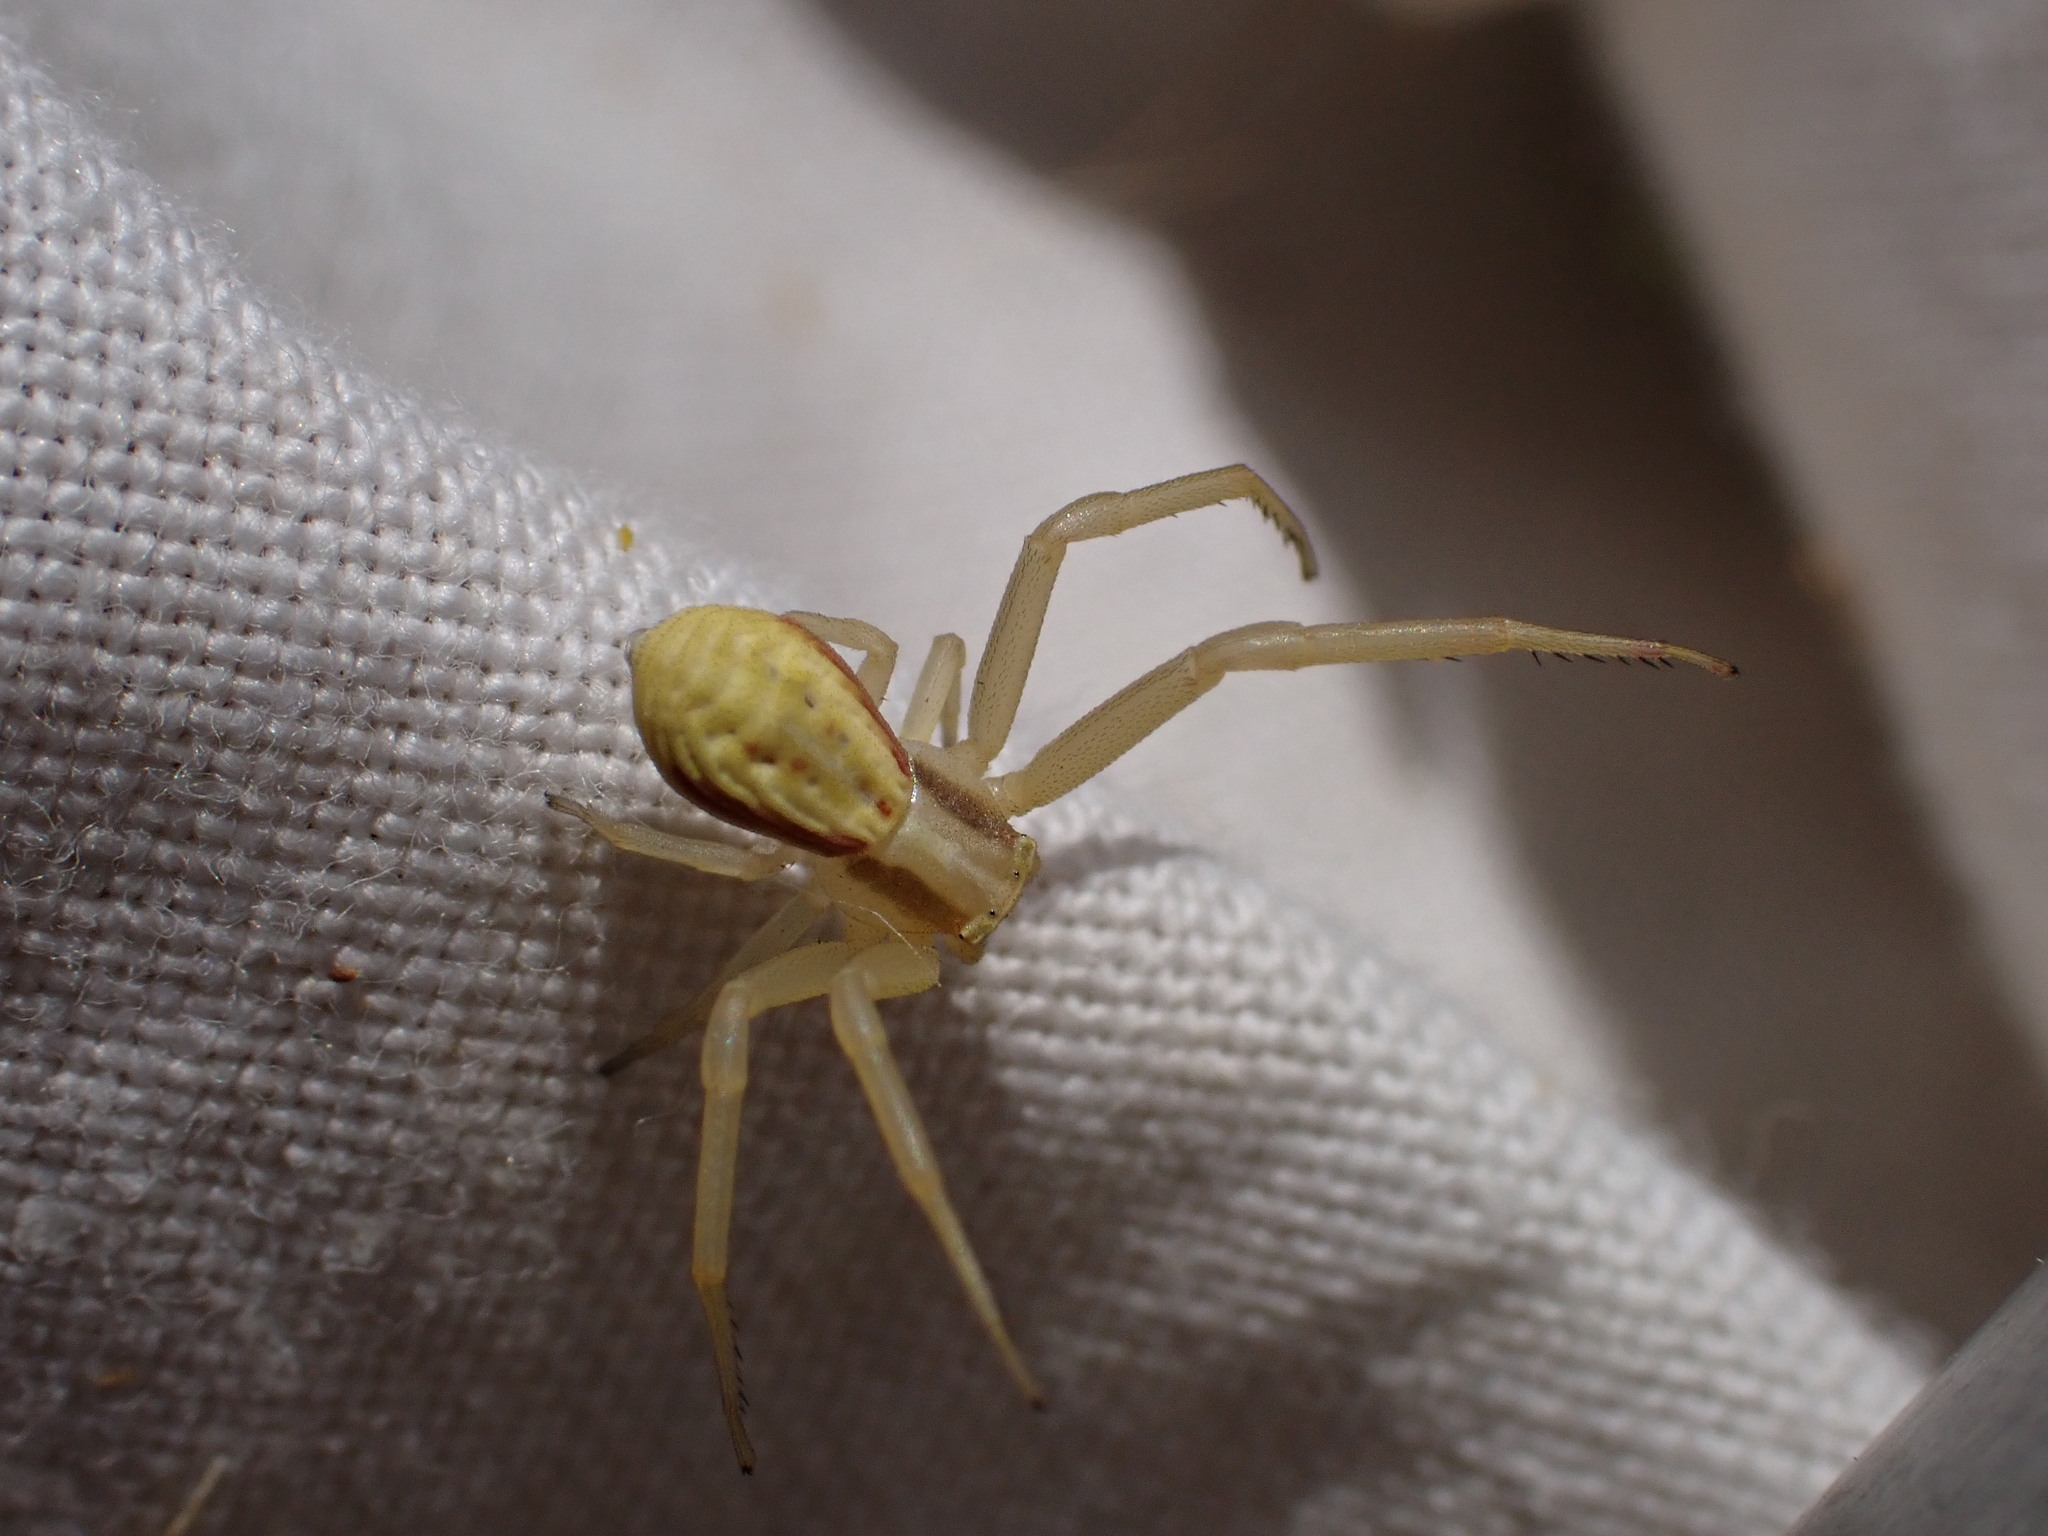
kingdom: Animalia
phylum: Arthropoda
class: Arachnida
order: Araneae
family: Thomisidae
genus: Runcinia
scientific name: Runcinia grammica
